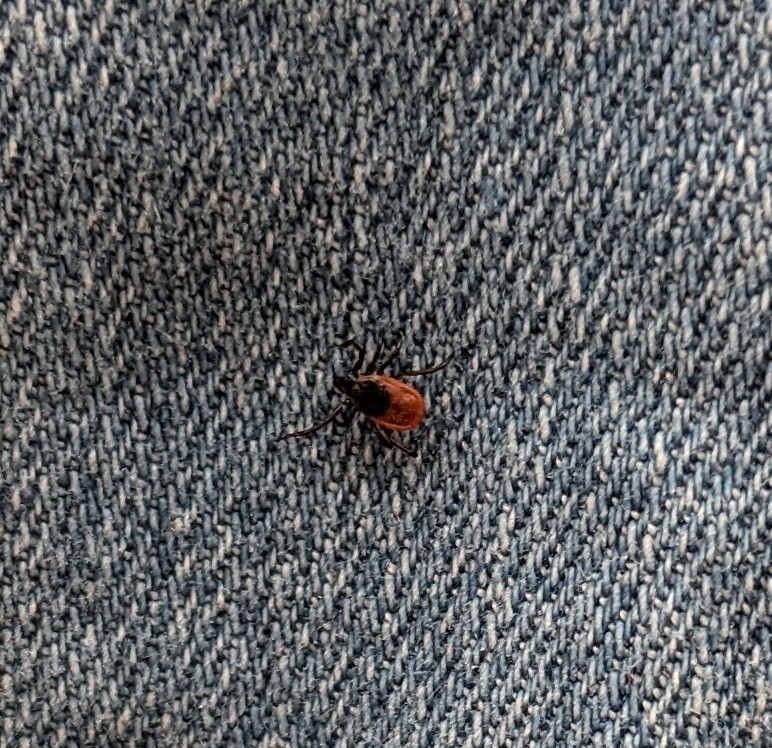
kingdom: Animalia
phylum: Arthropoda
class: Arachnida
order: Ixodida
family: Ixodidae
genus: Ixodes
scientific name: Ixodes scapularis
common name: Black legged tick
